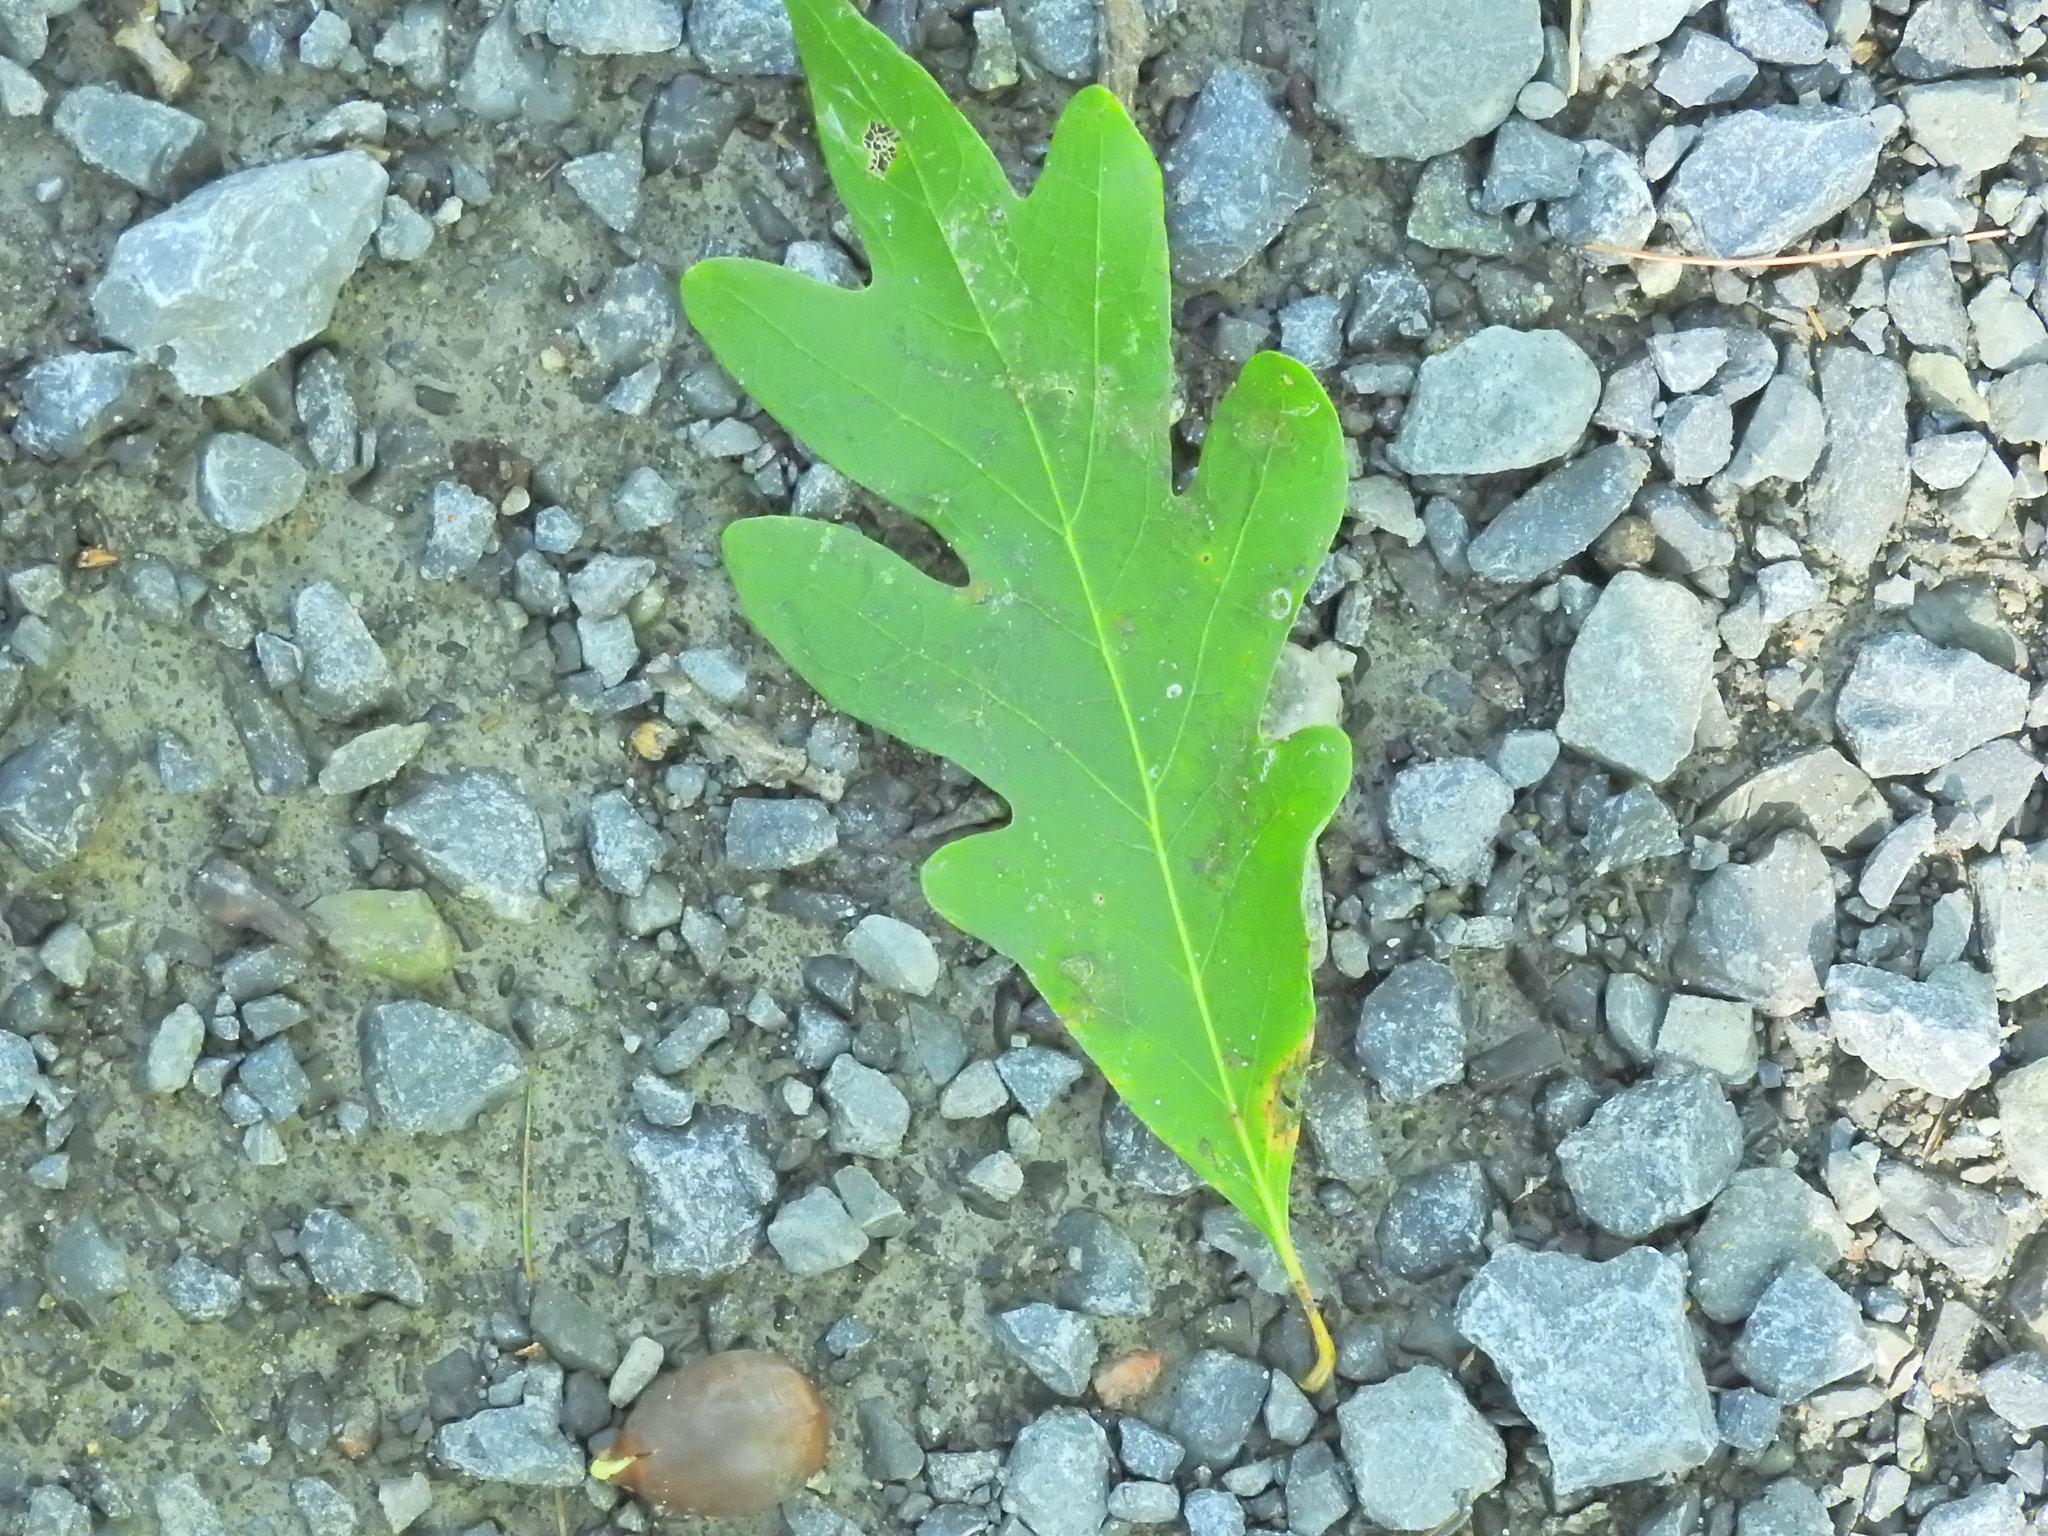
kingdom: Plantae
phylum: Tracheophyta
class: Magnoliopsida
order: Fagales
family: Fagaceae
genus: Quercus
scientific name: Quercus alba
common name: White oak
